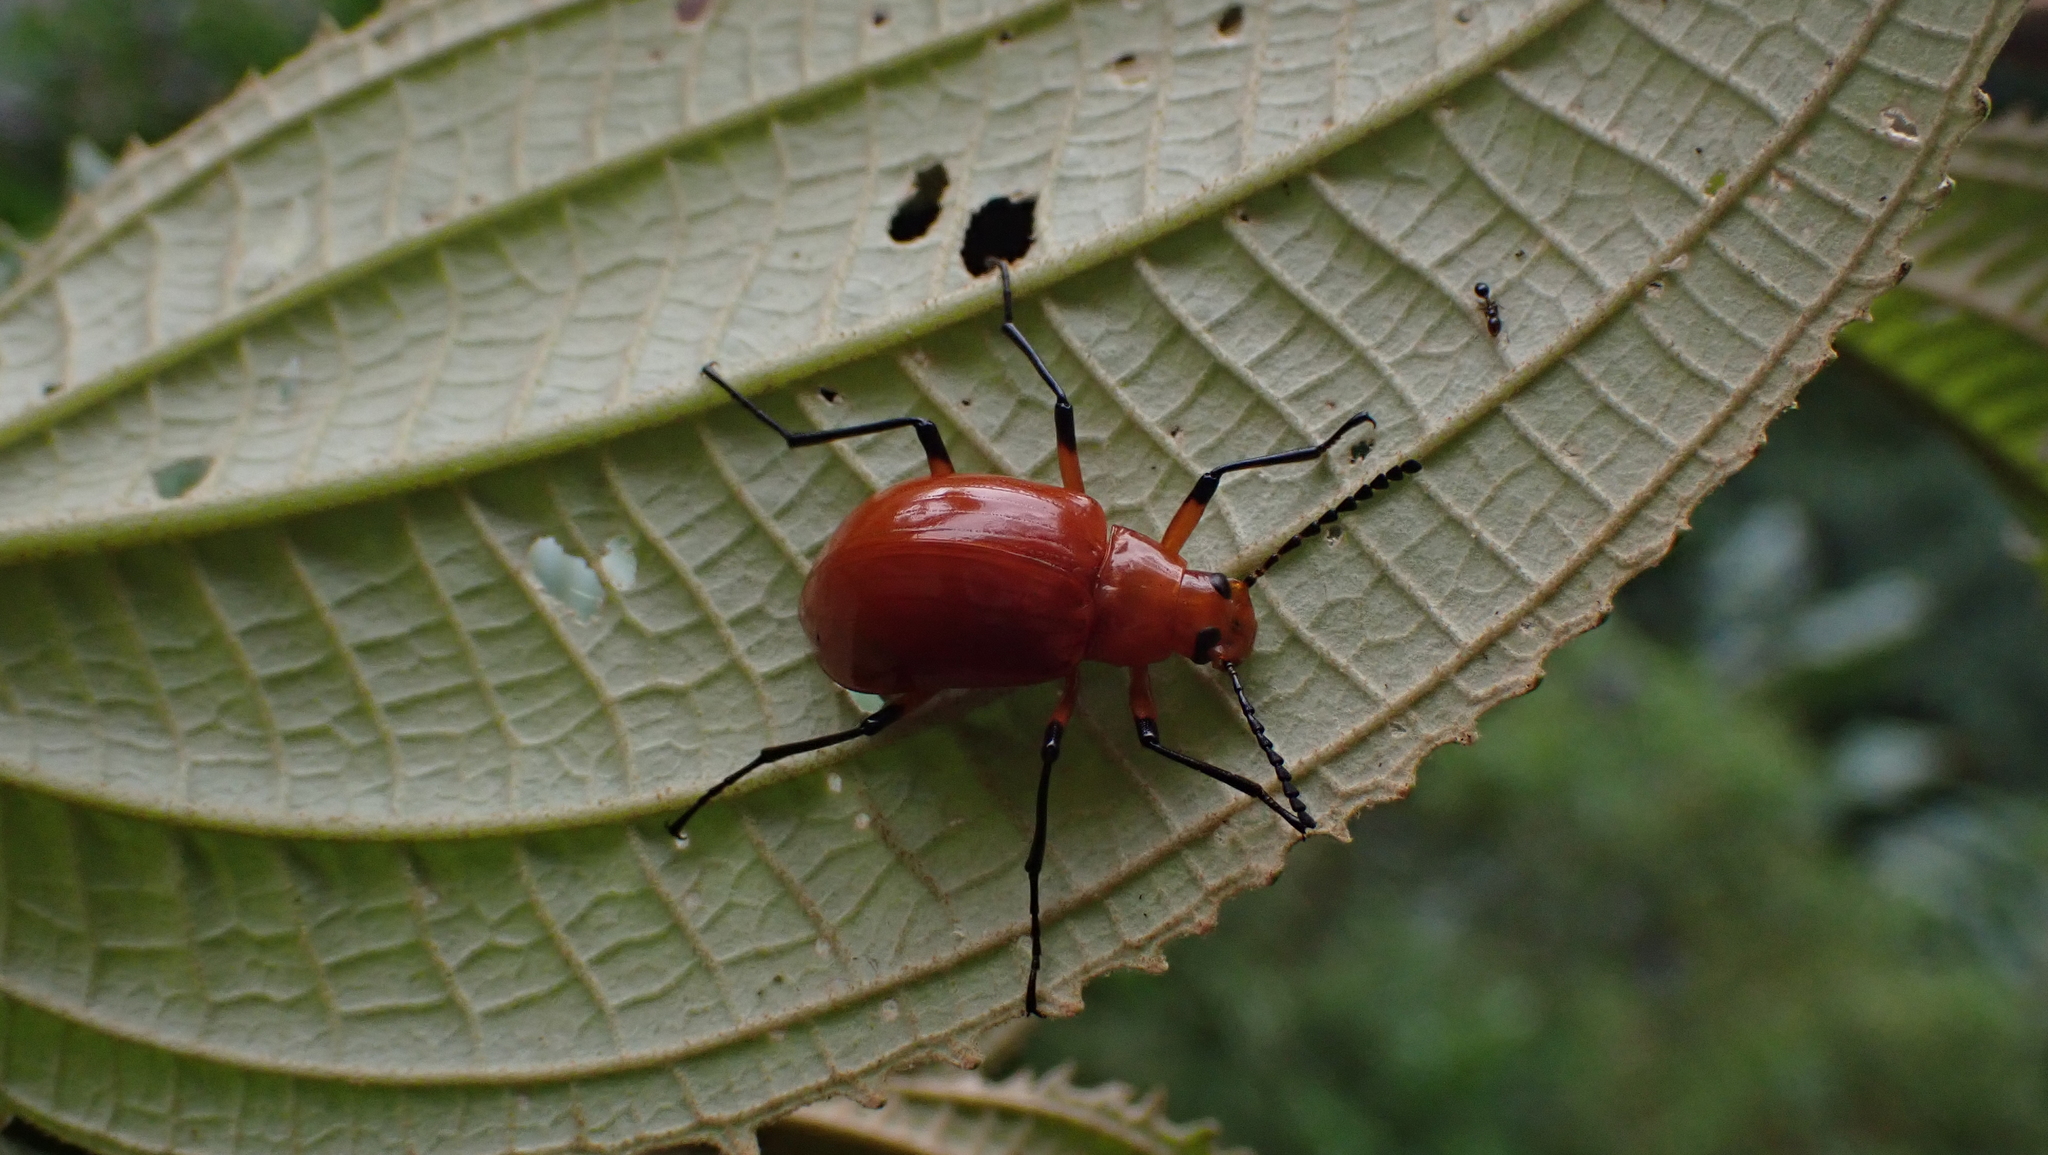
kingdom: Animalia
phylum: Arthropoda
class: Insecta
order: Coleoptera
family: Tenebrionidae
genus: Cuphotes
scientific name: Cuphotes unicolor
